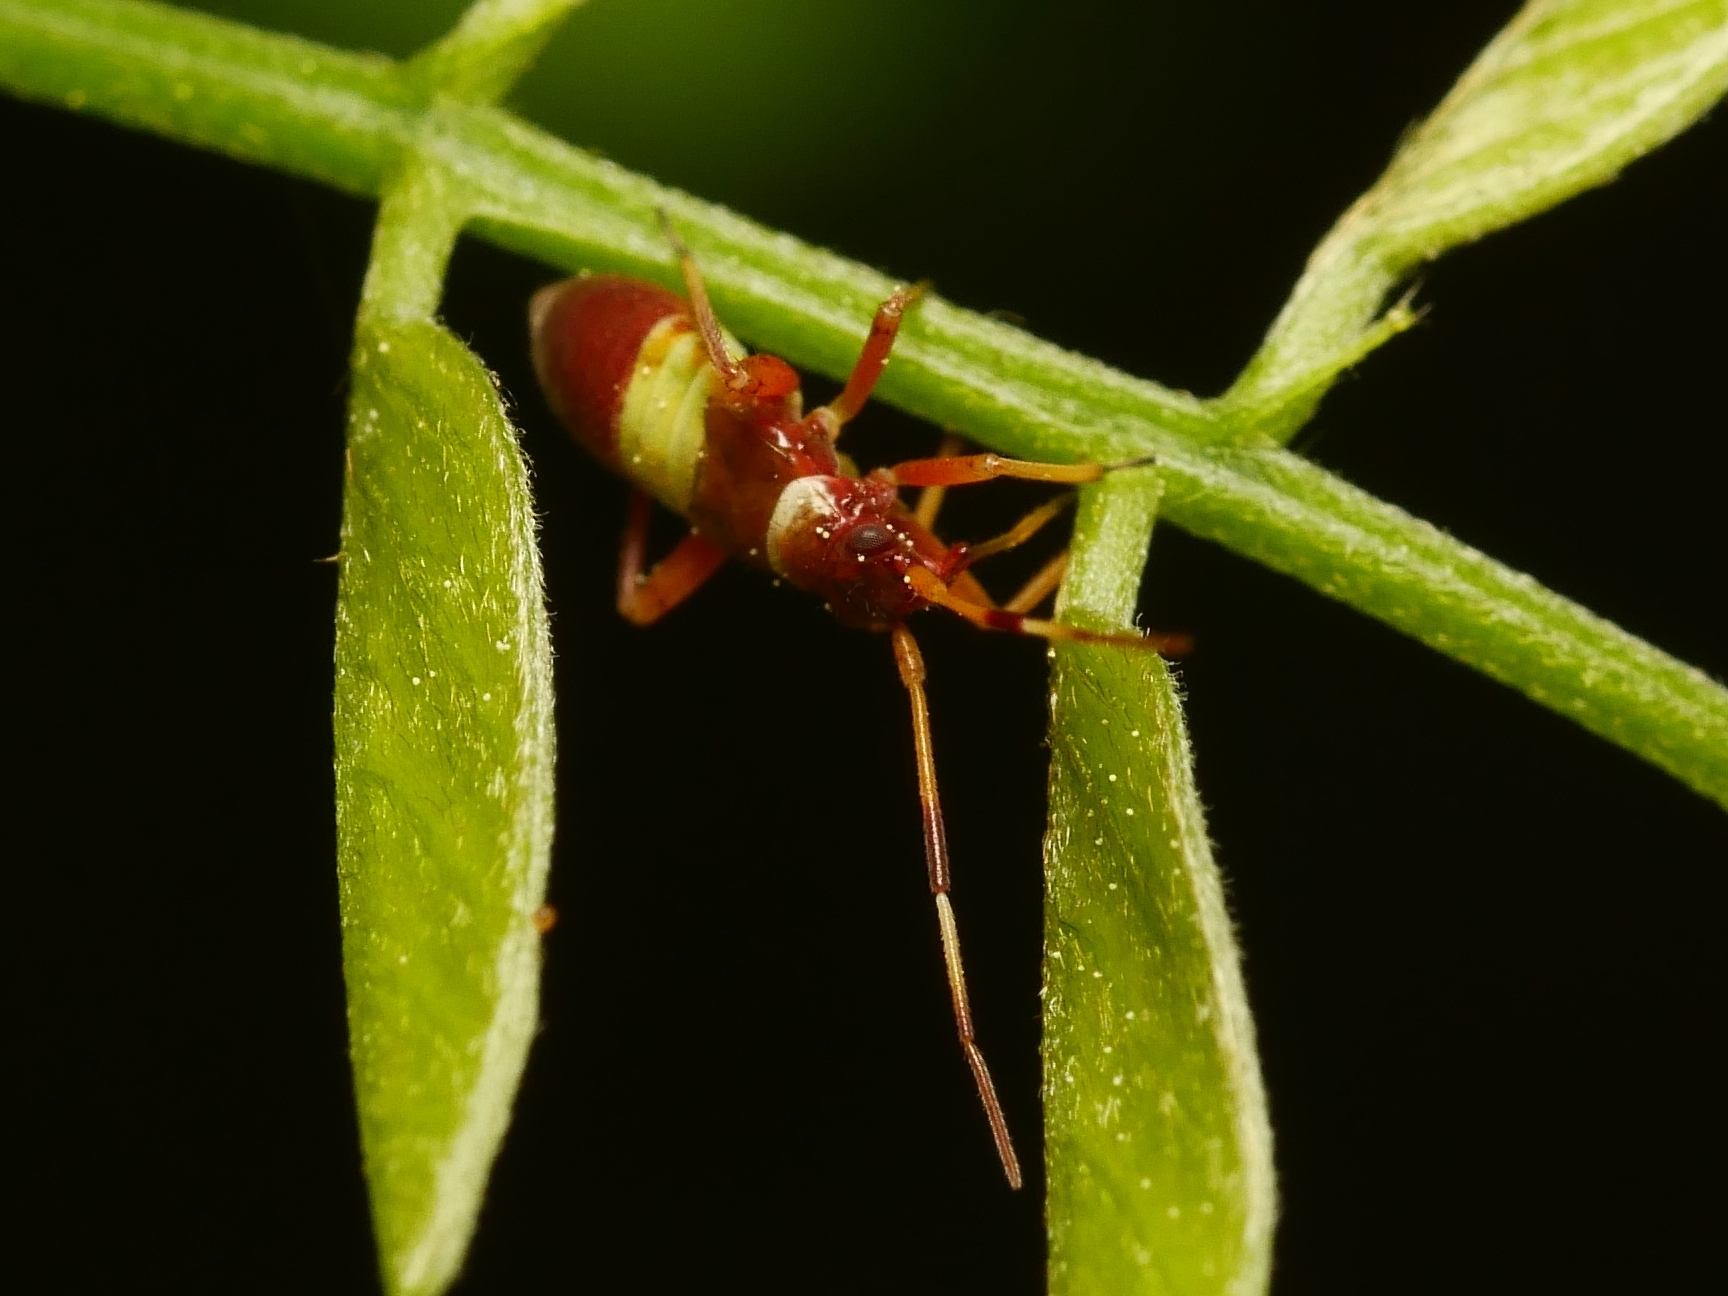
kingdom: Animalia
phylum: Arthropoda
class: Insecta
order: Hemiptera
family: Miridae
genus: Closterotomus
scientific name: Closterotomus biclavatus
